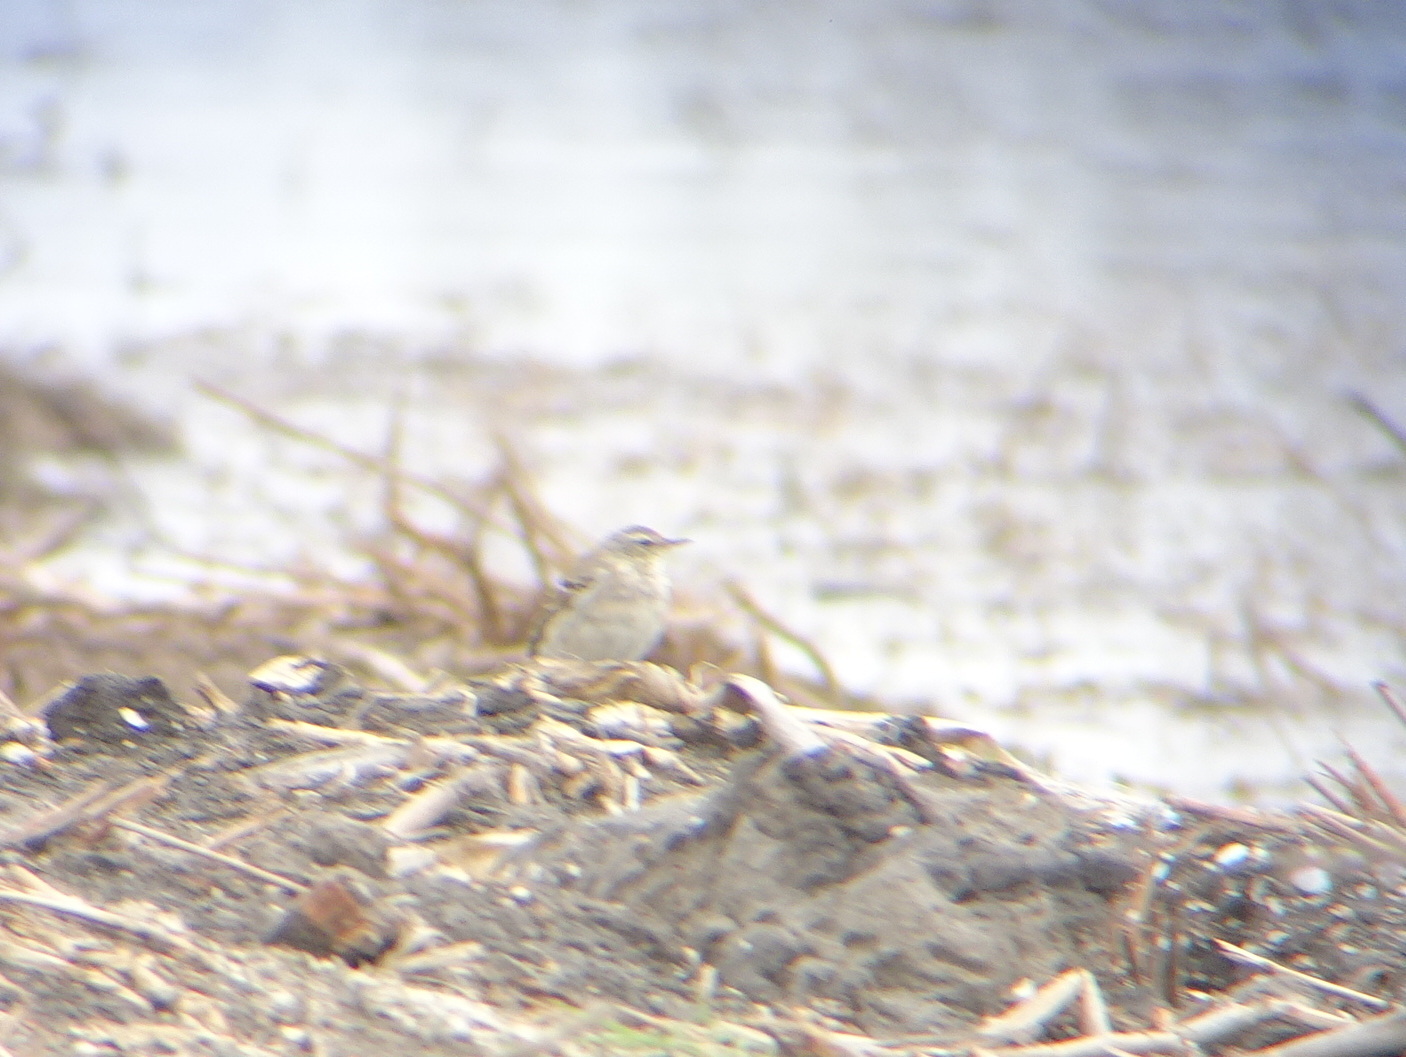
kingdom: Animalia
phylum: Chordata
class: Aves
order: Passeriformes
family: Motacillidae
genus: Anthus
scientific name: Anthus spinoletta
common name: Water pipit
